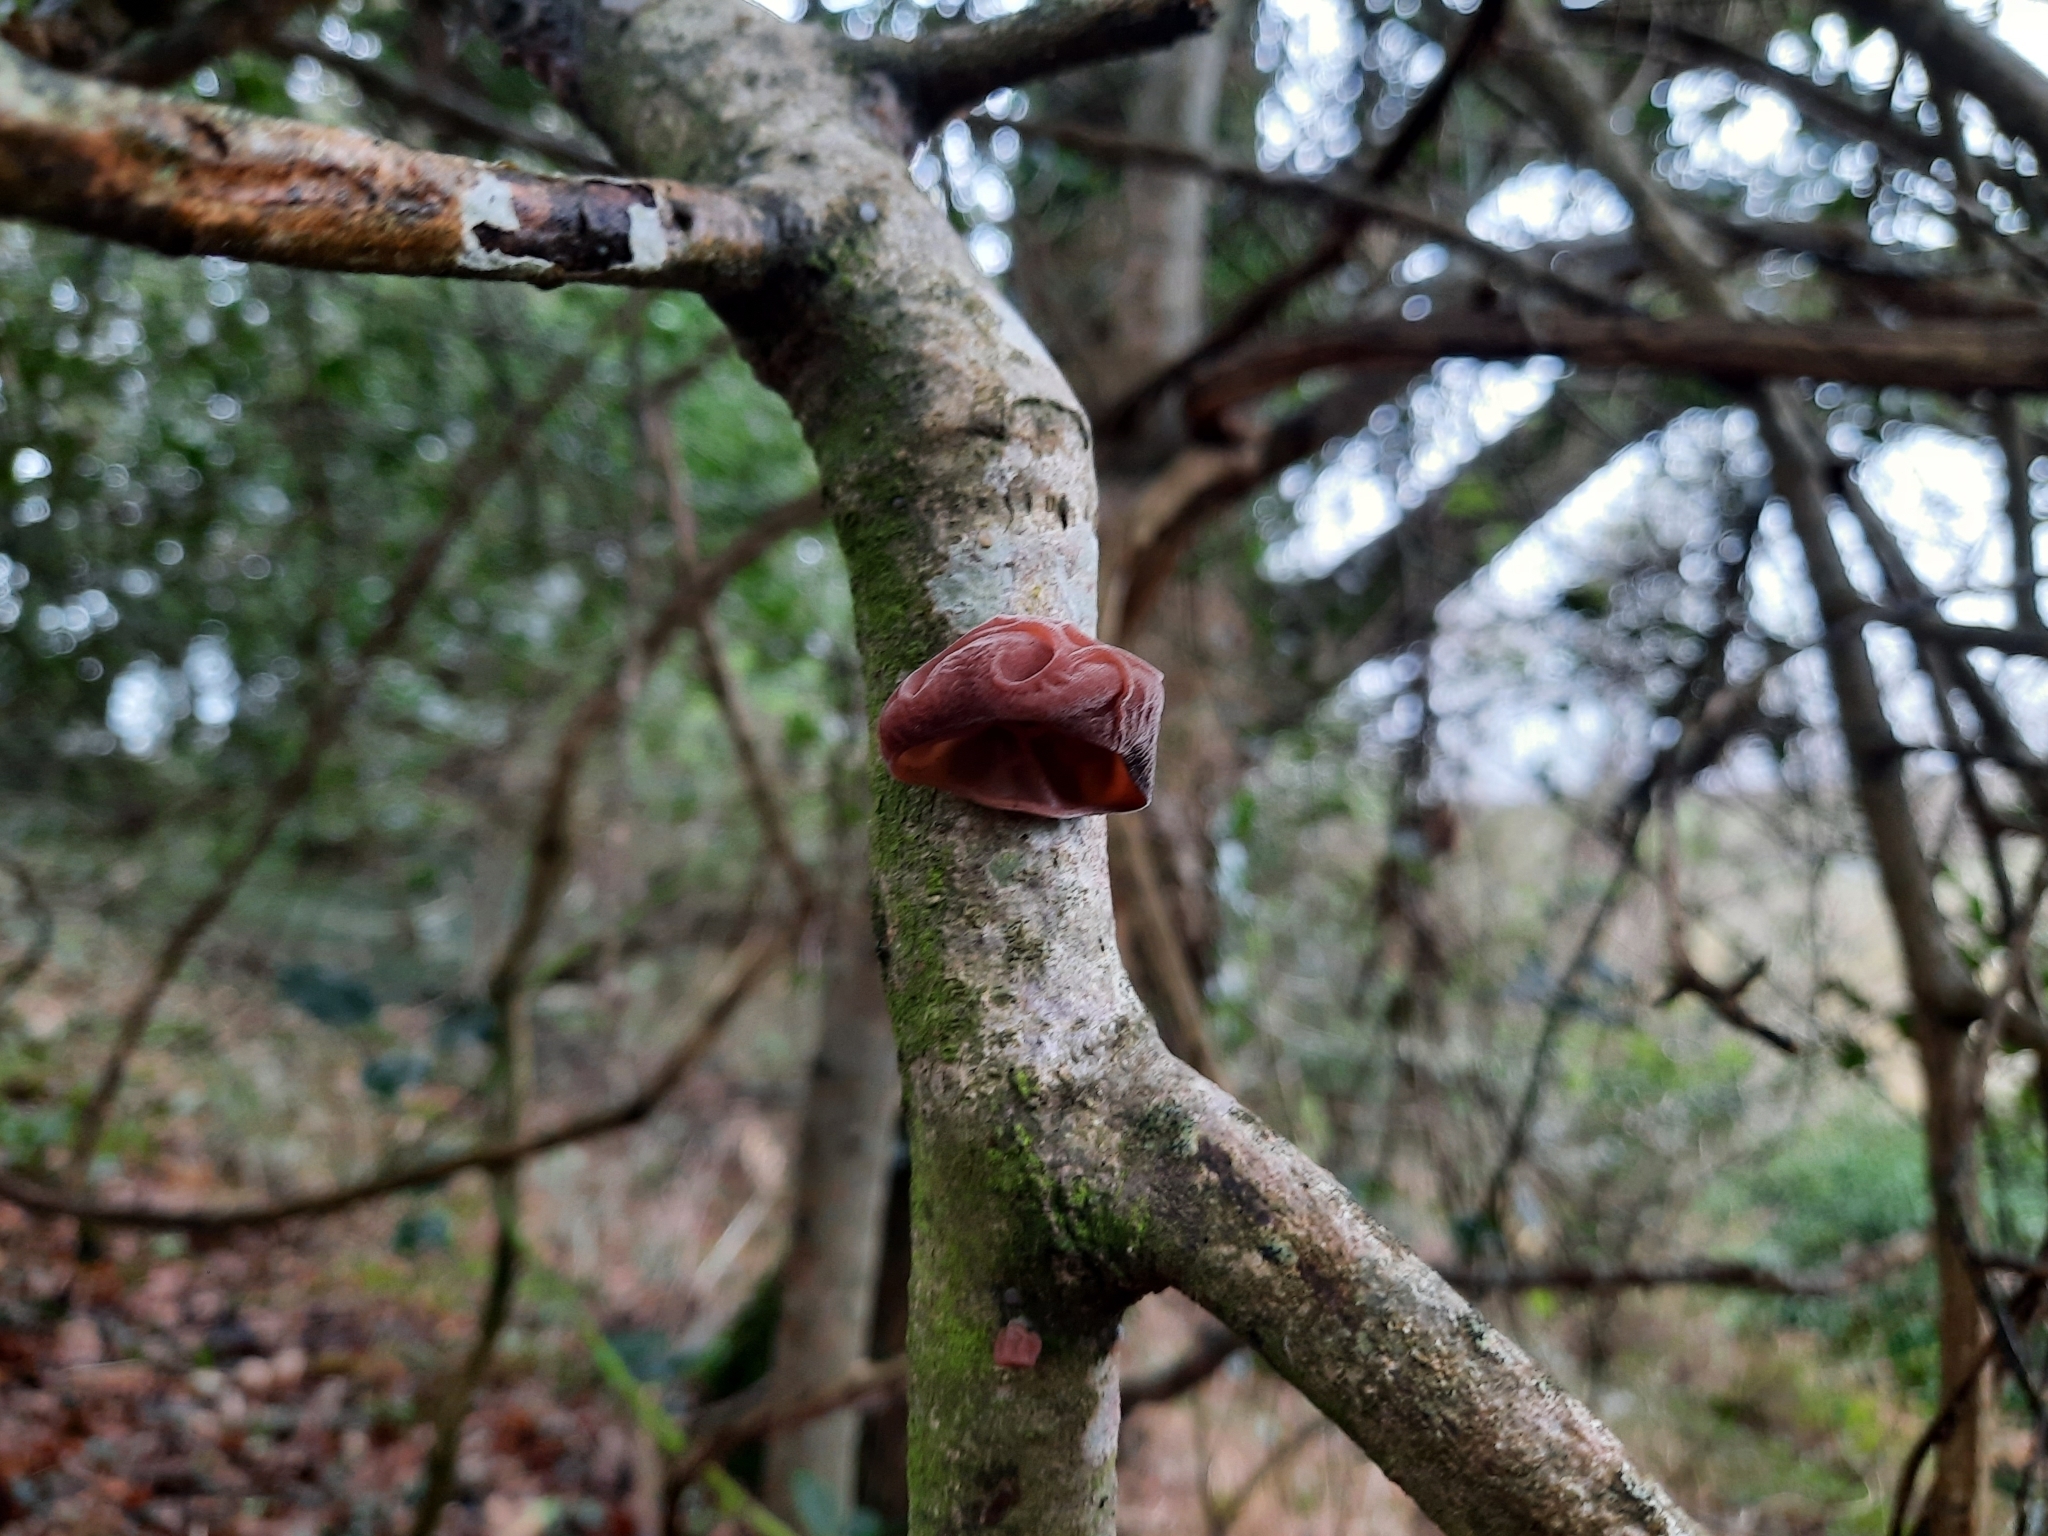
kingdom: Fungi
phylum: Basidiomycota
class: Agaricomycetes
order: Auriculariales
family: Auriculariaceae
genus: Auricularia
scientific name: Auricularia auricula-judae
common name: Jelly ear
